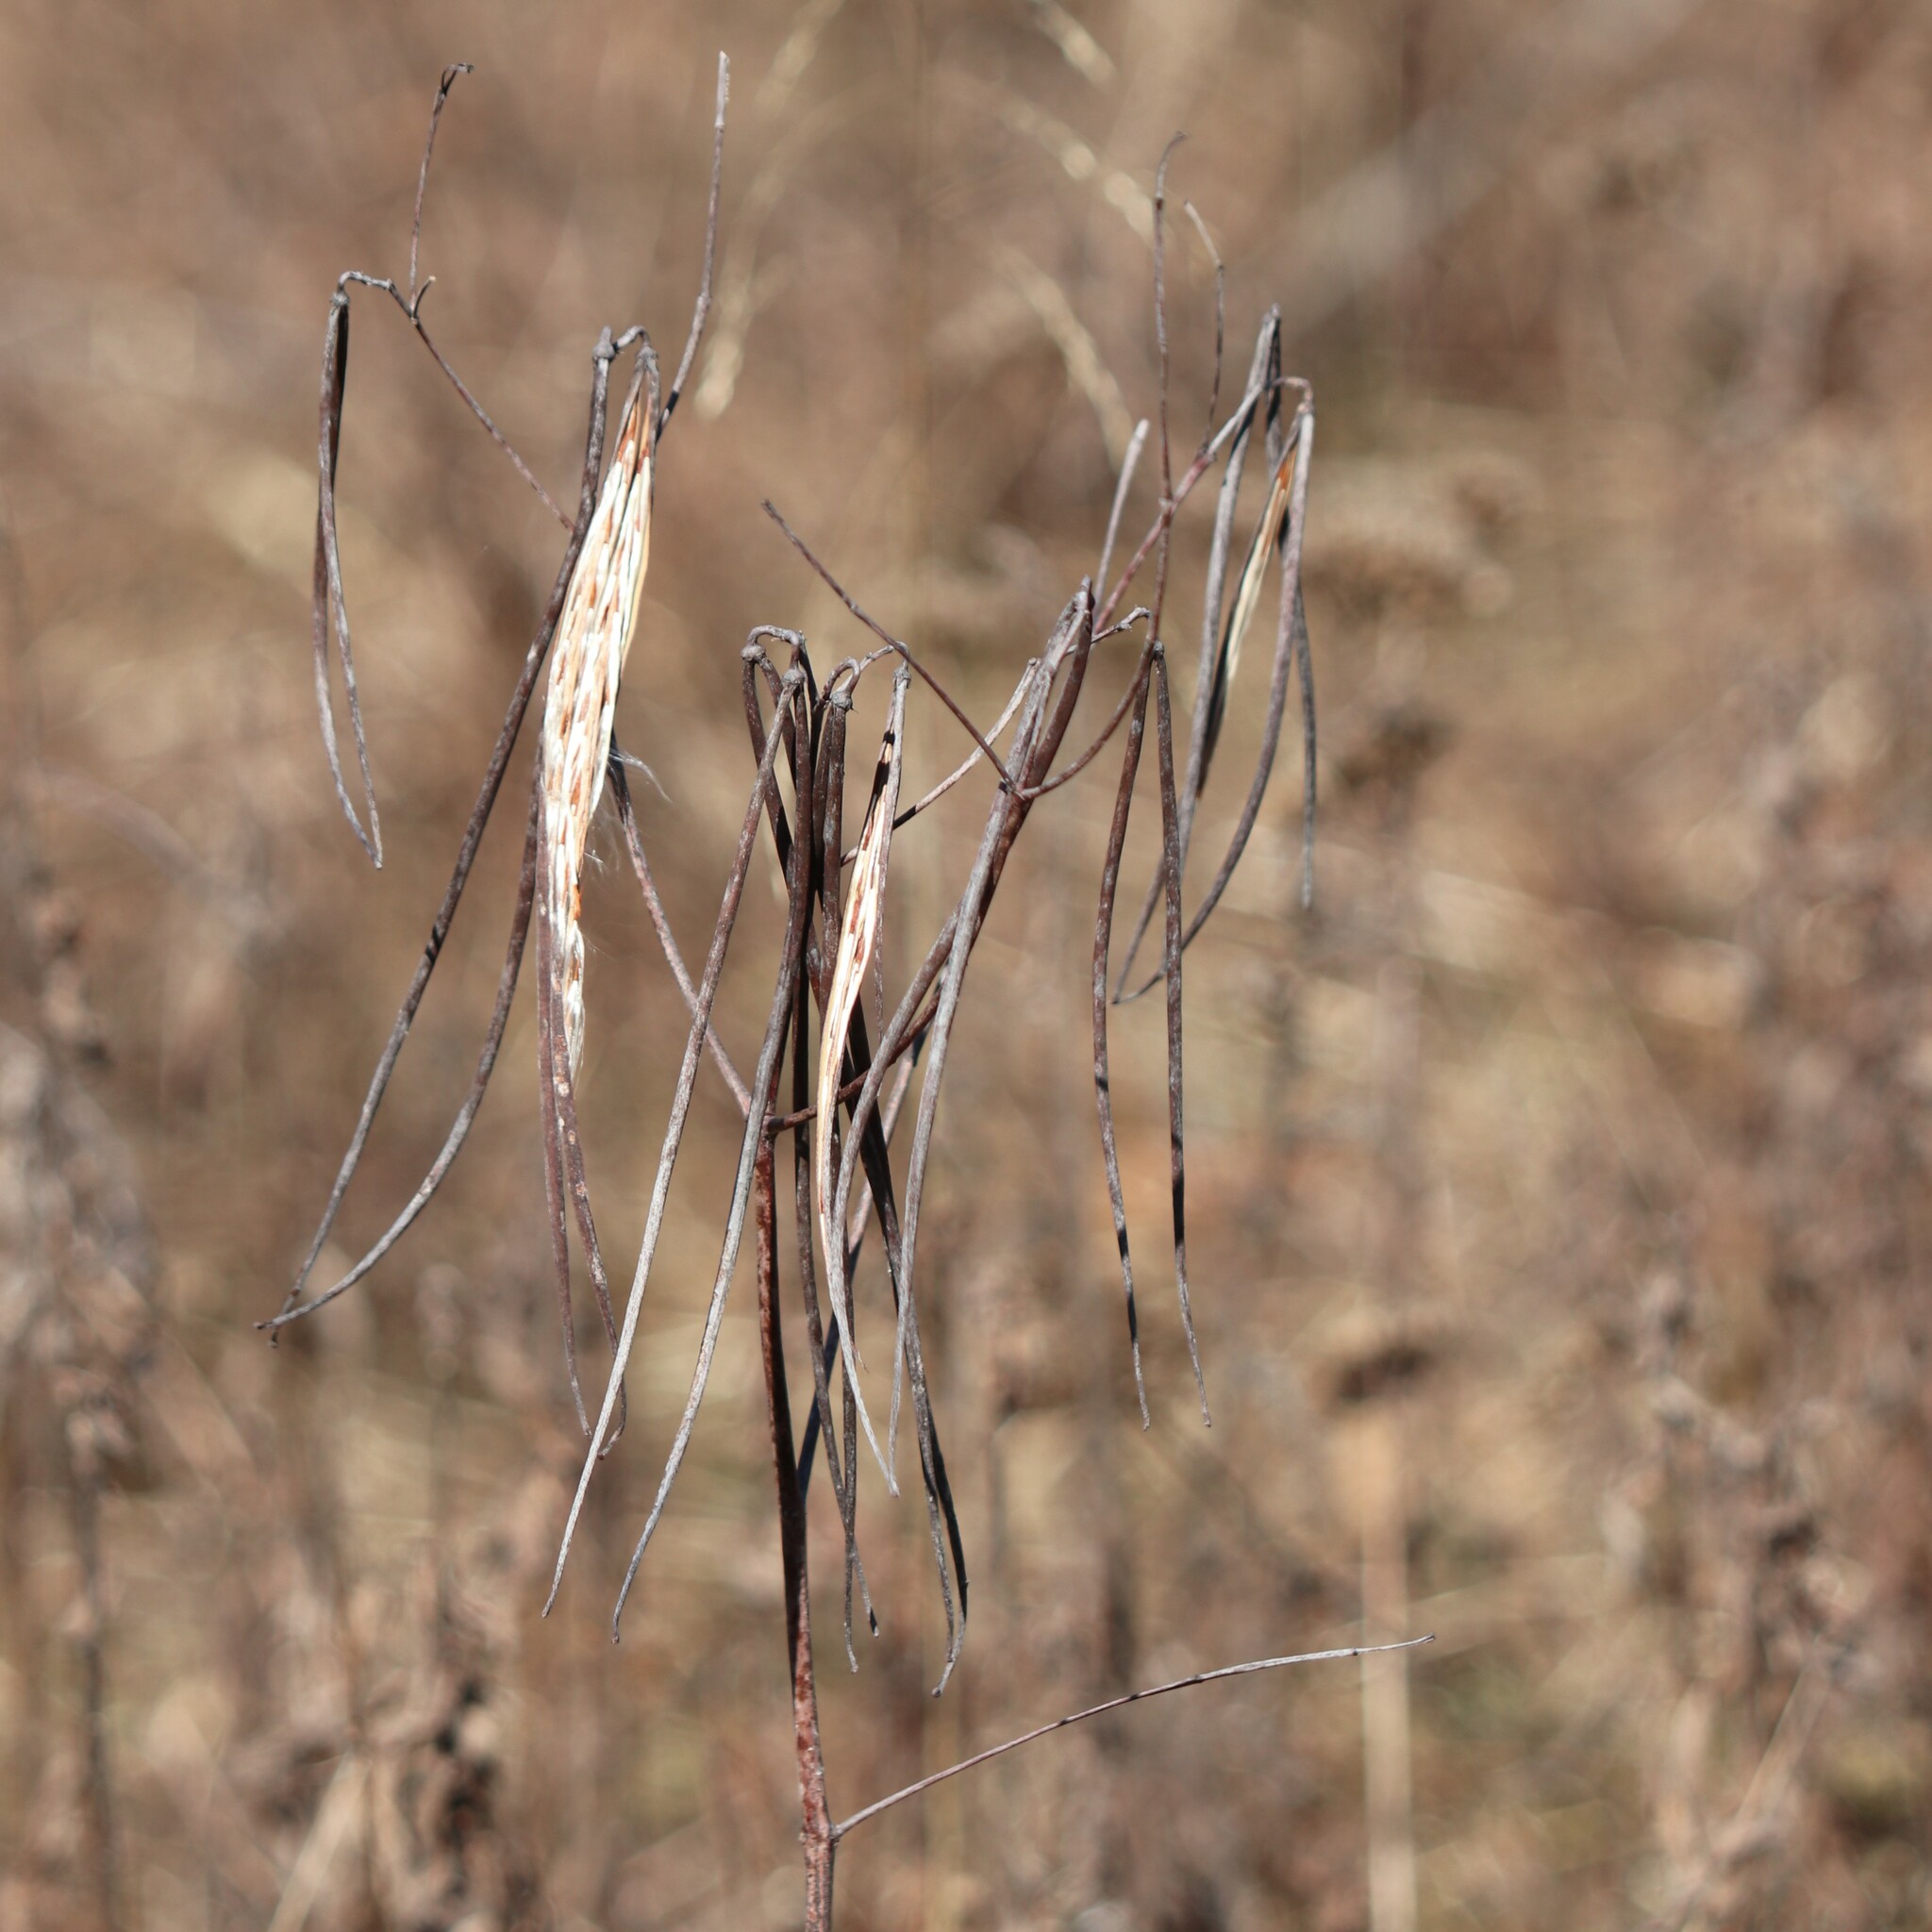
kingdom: Plantae
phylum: Tracheophyta
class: Magnoliopsida
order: Gentianales
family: Apocynaceae
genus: Apocynum
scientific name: Apocynum cannabinum
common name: Hemp dogbane
